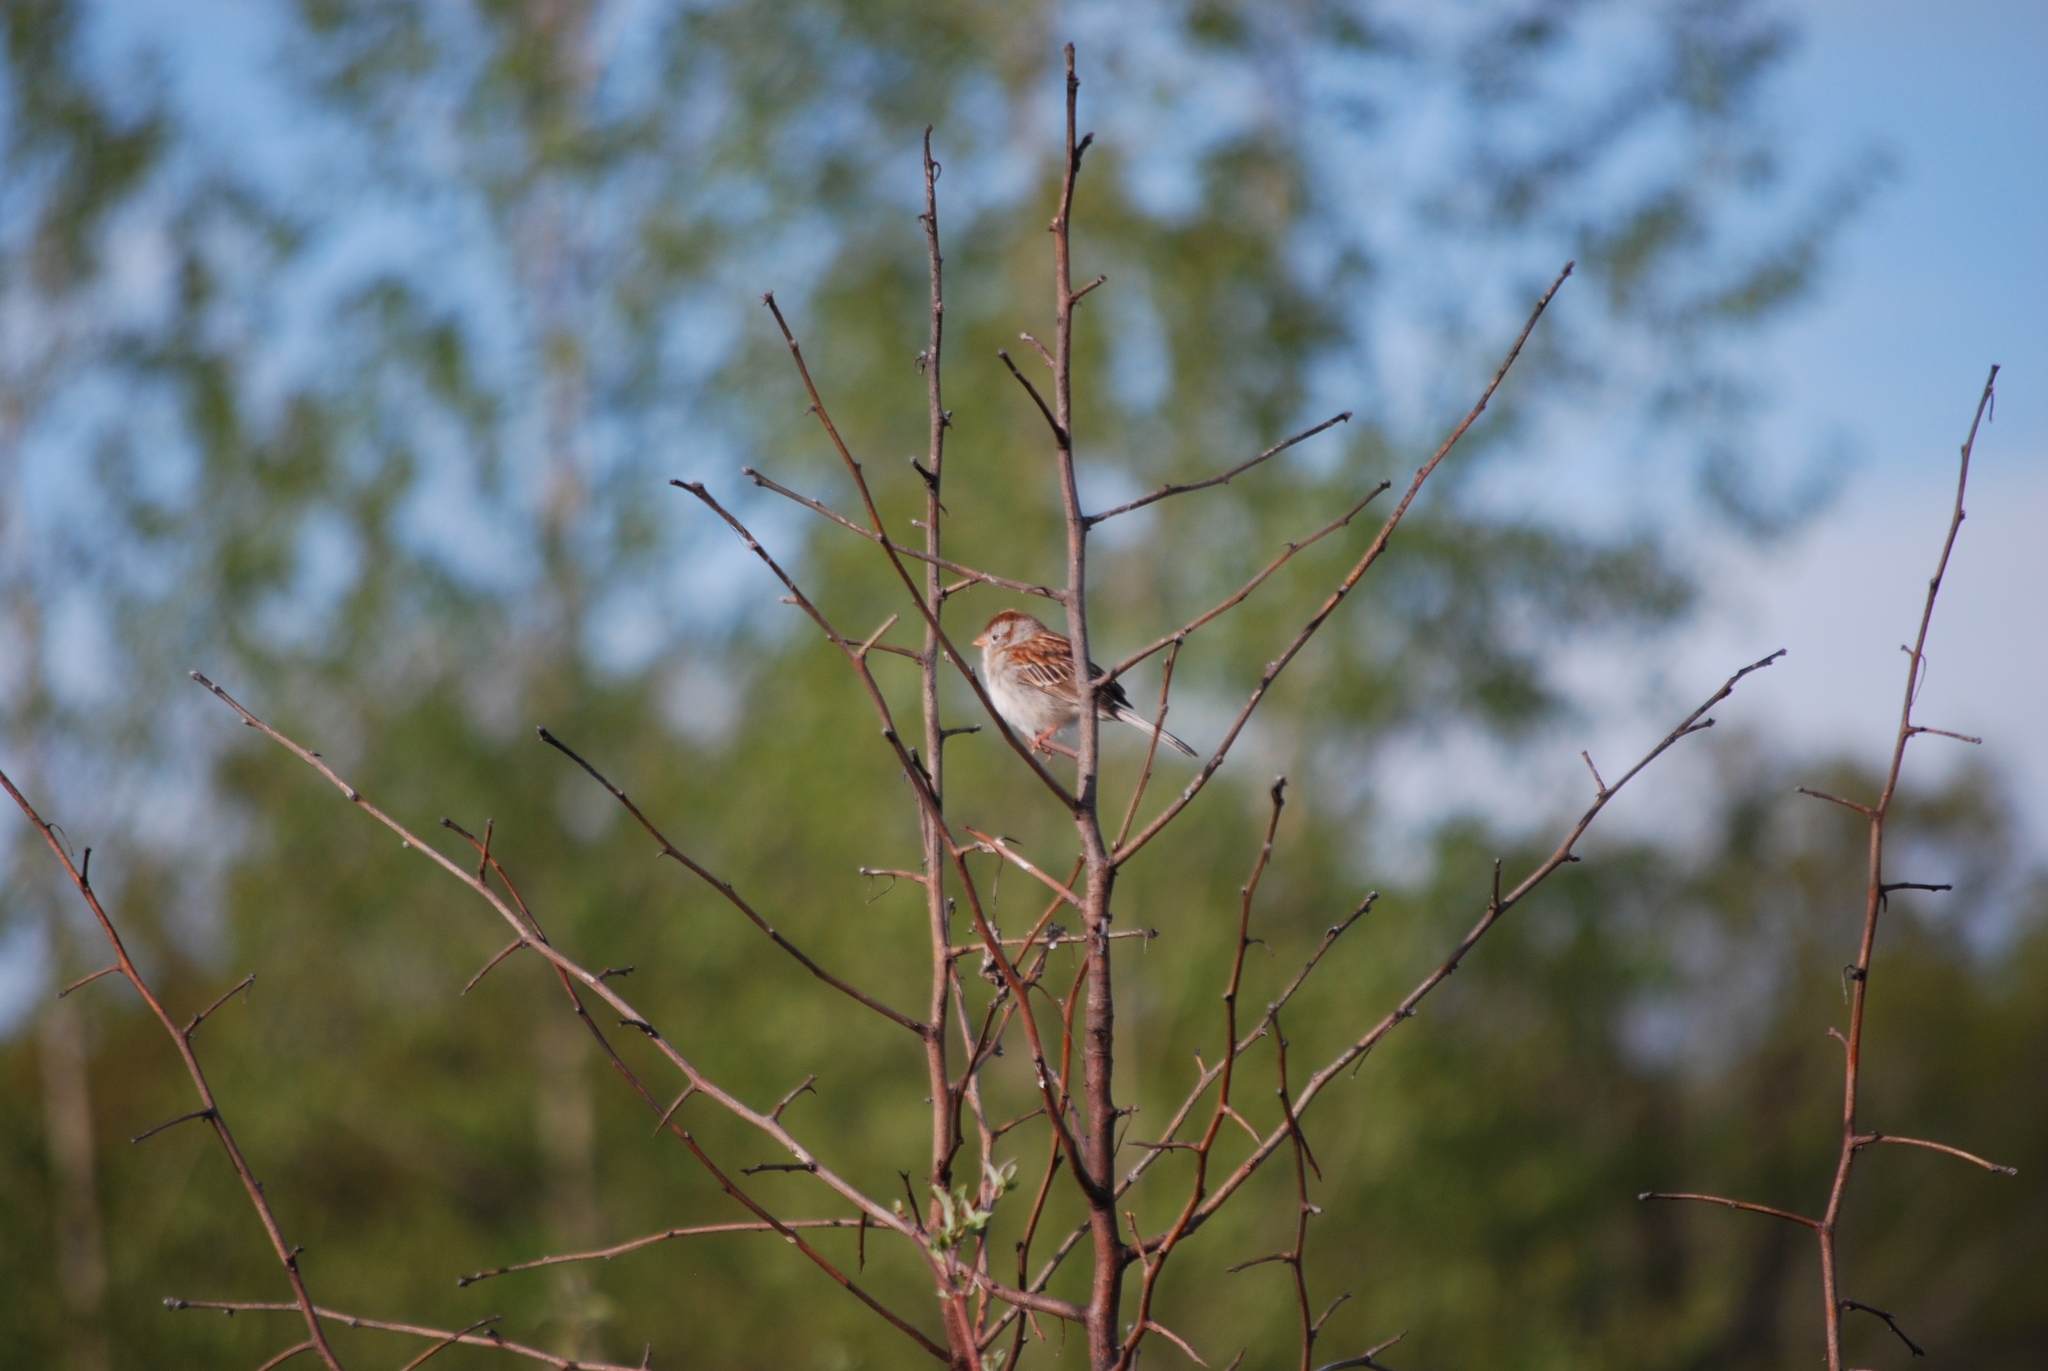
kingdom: Animalia
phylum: Chordata
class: Aves
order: Passeriformes
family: Passerellidae
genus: Spizella
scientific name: Spizella pusilla
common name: Field sparrow
